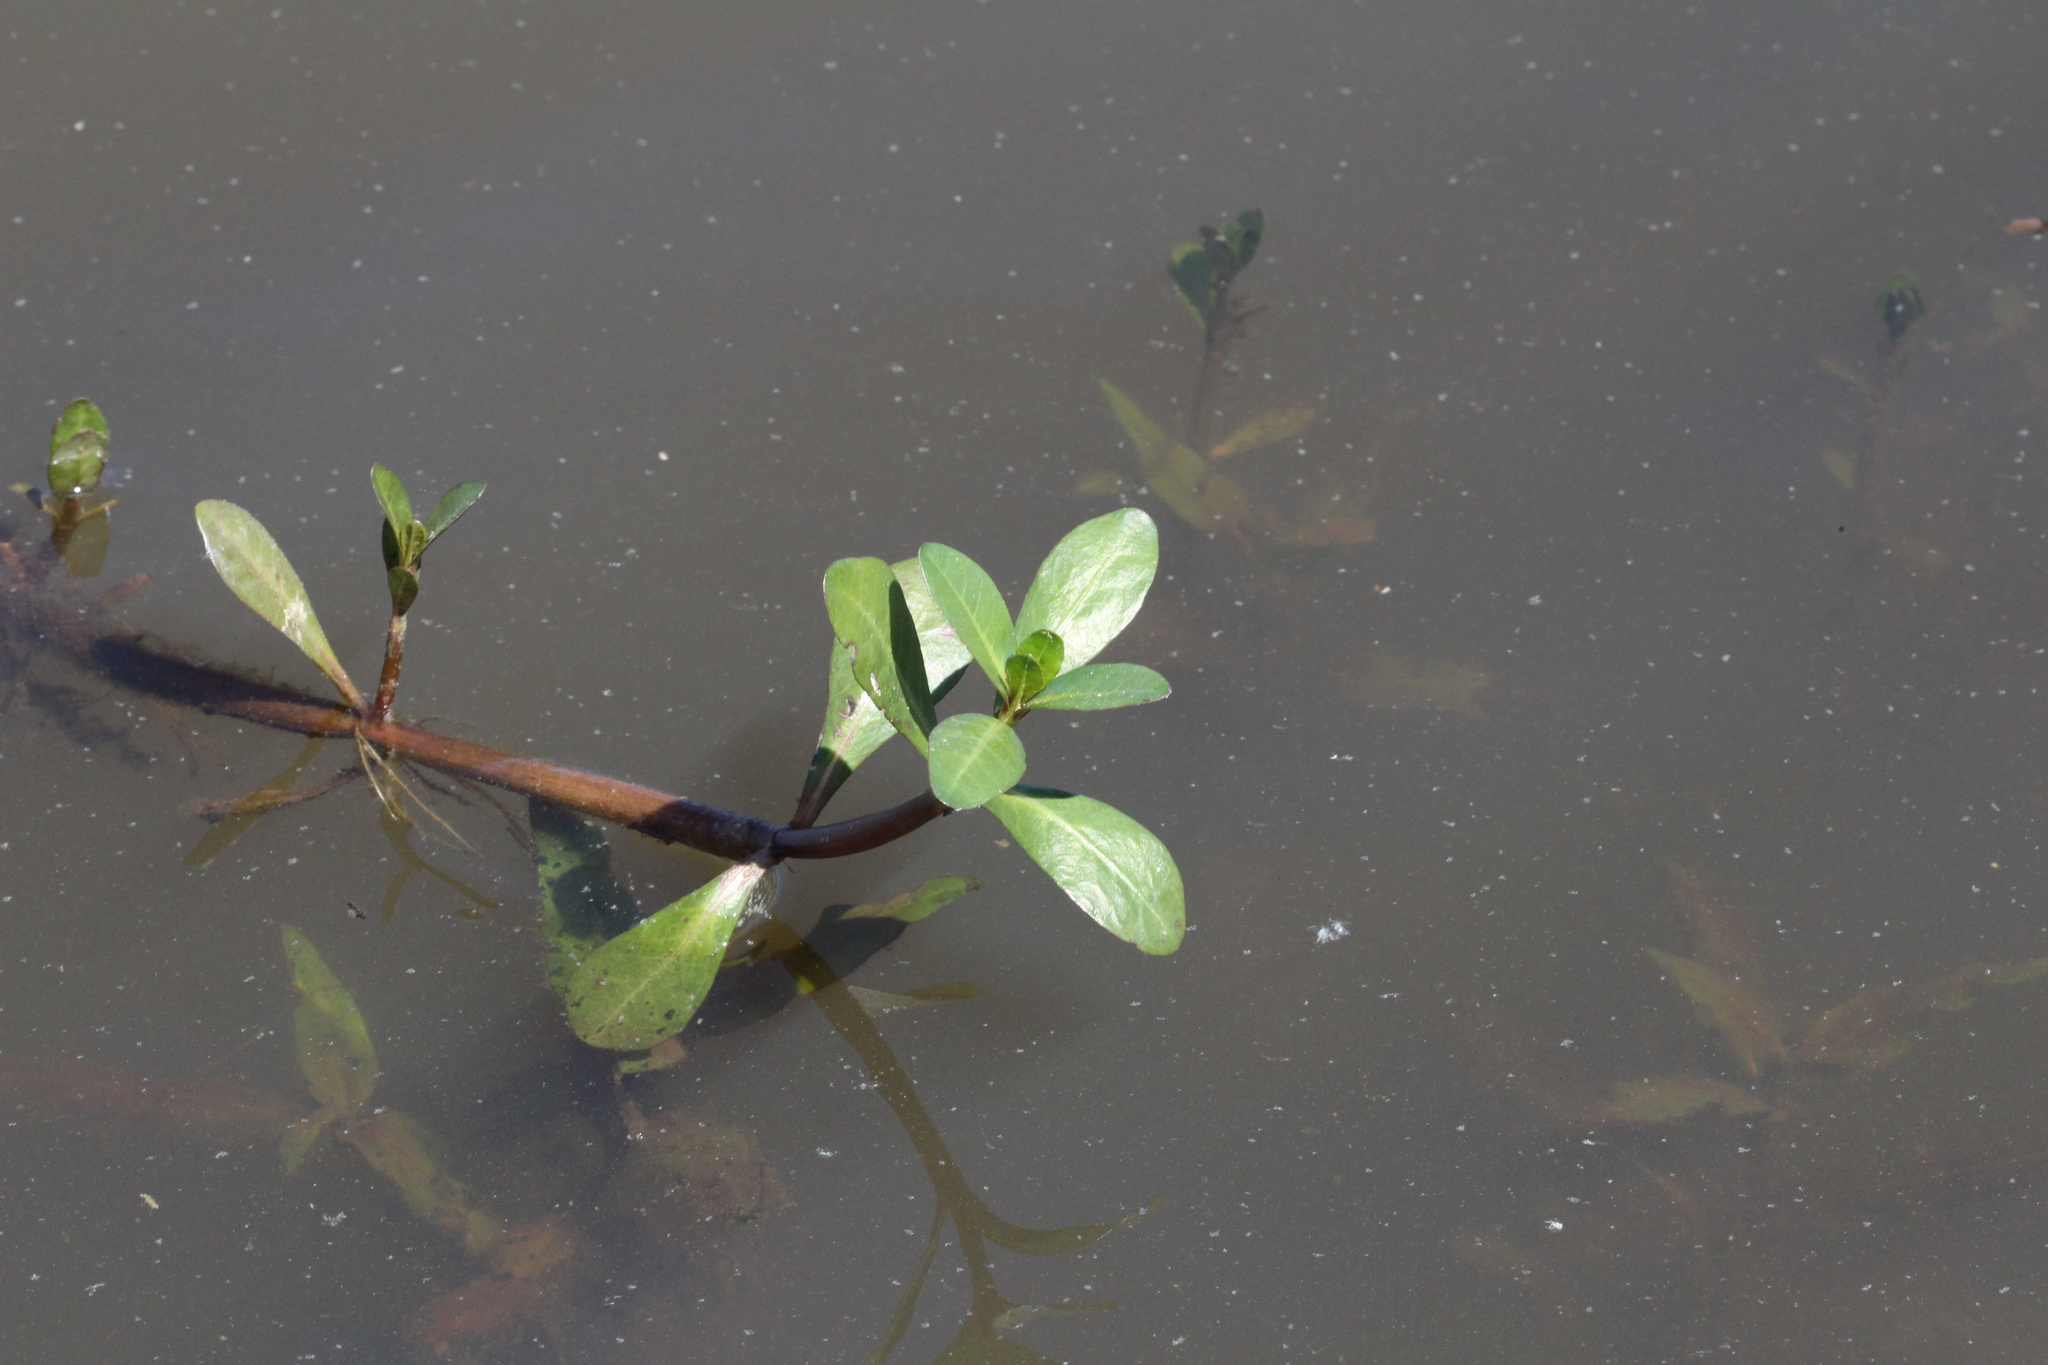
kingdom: Plantae
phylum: Tracheophyta
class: Magnoliopsida
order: Caryophyllales
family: Amaranthaceae
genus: Alternanthera
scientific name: Alternanthera philoxeroides
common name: Alligatorweed
